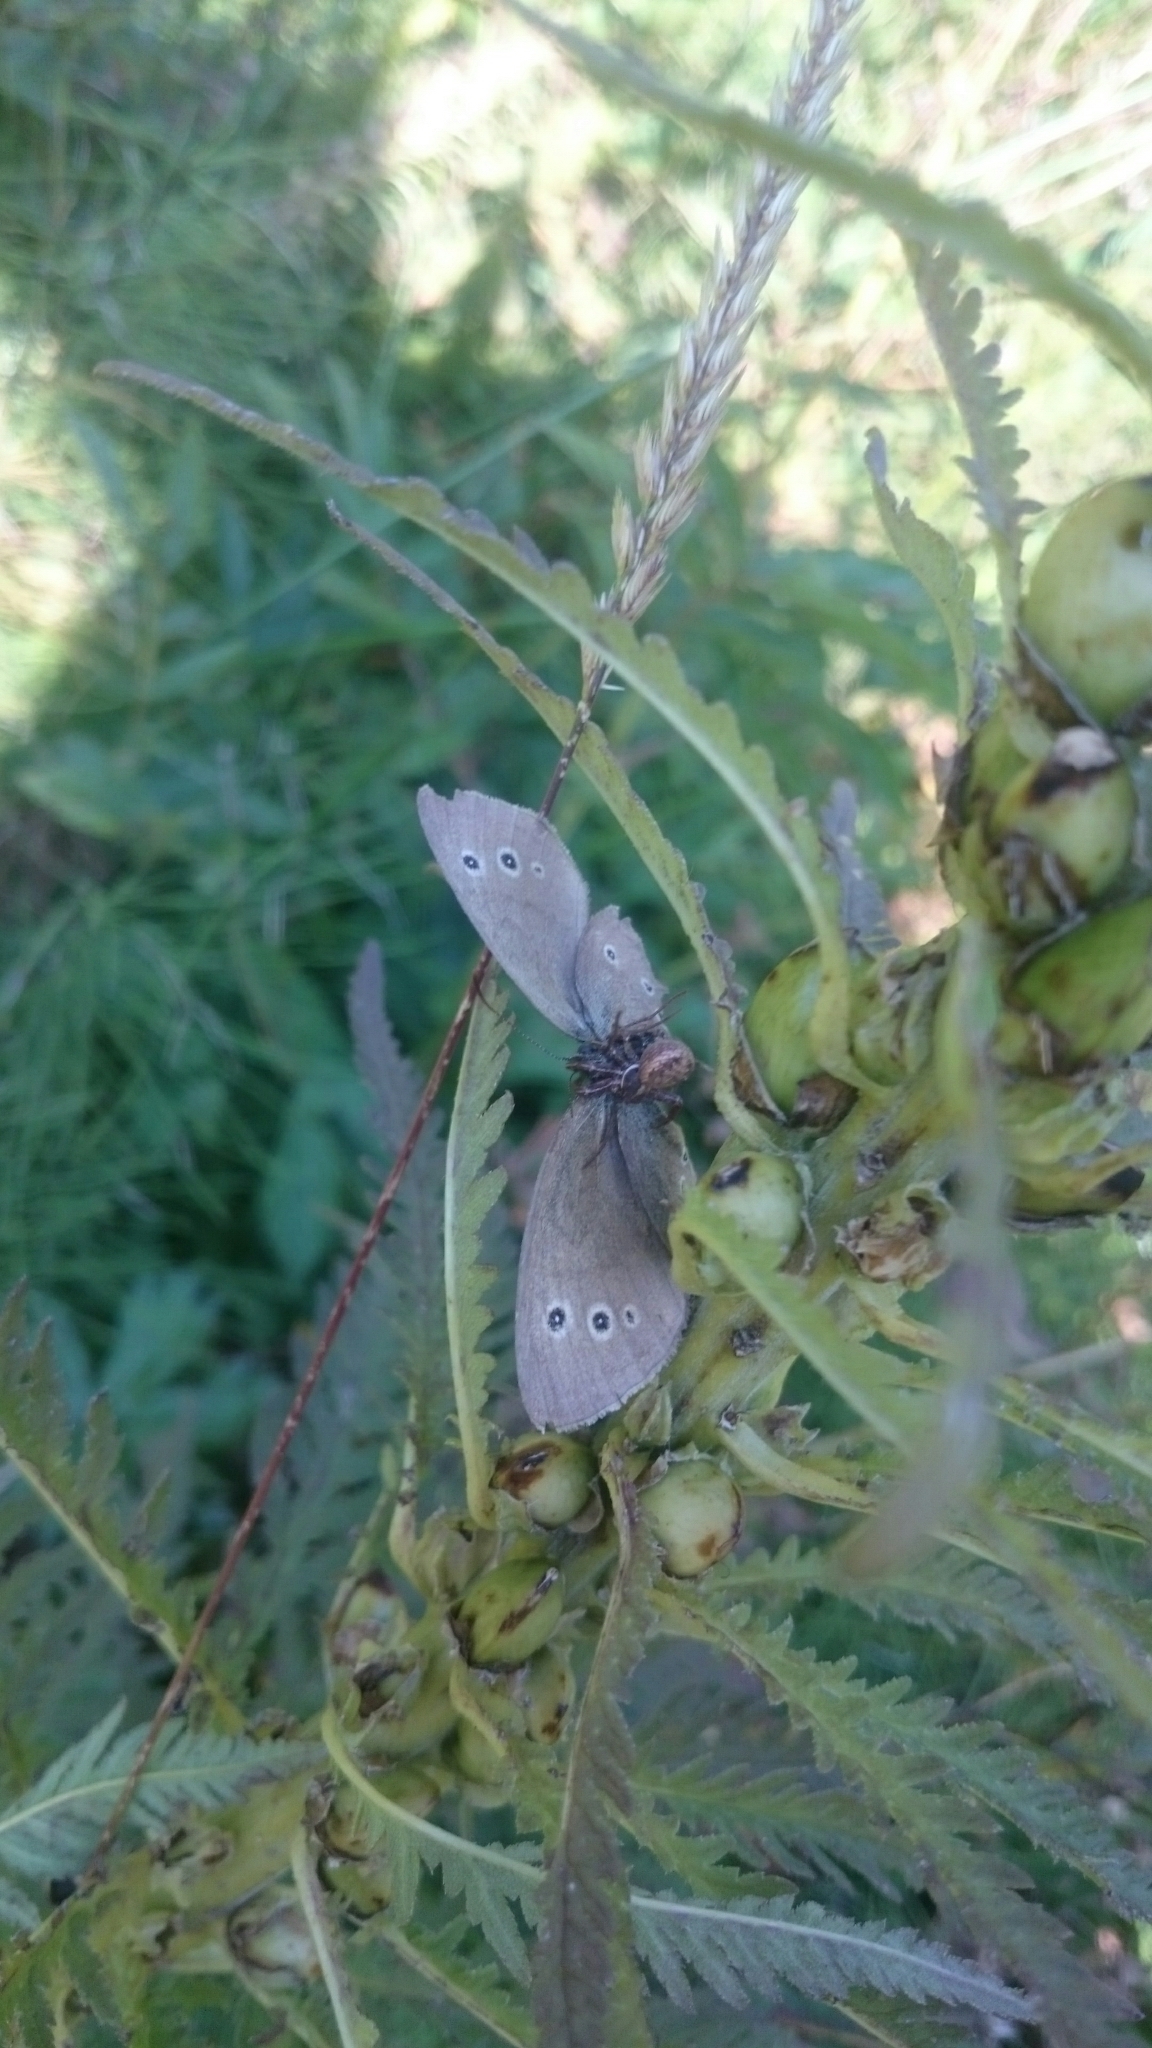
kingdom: Animalia
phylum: Arthropoda
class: Insecta
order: Lepidoptera
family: Nymphalidae
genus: Aphantopus
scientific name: Aphantopus hyperantus
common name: Ringlet
